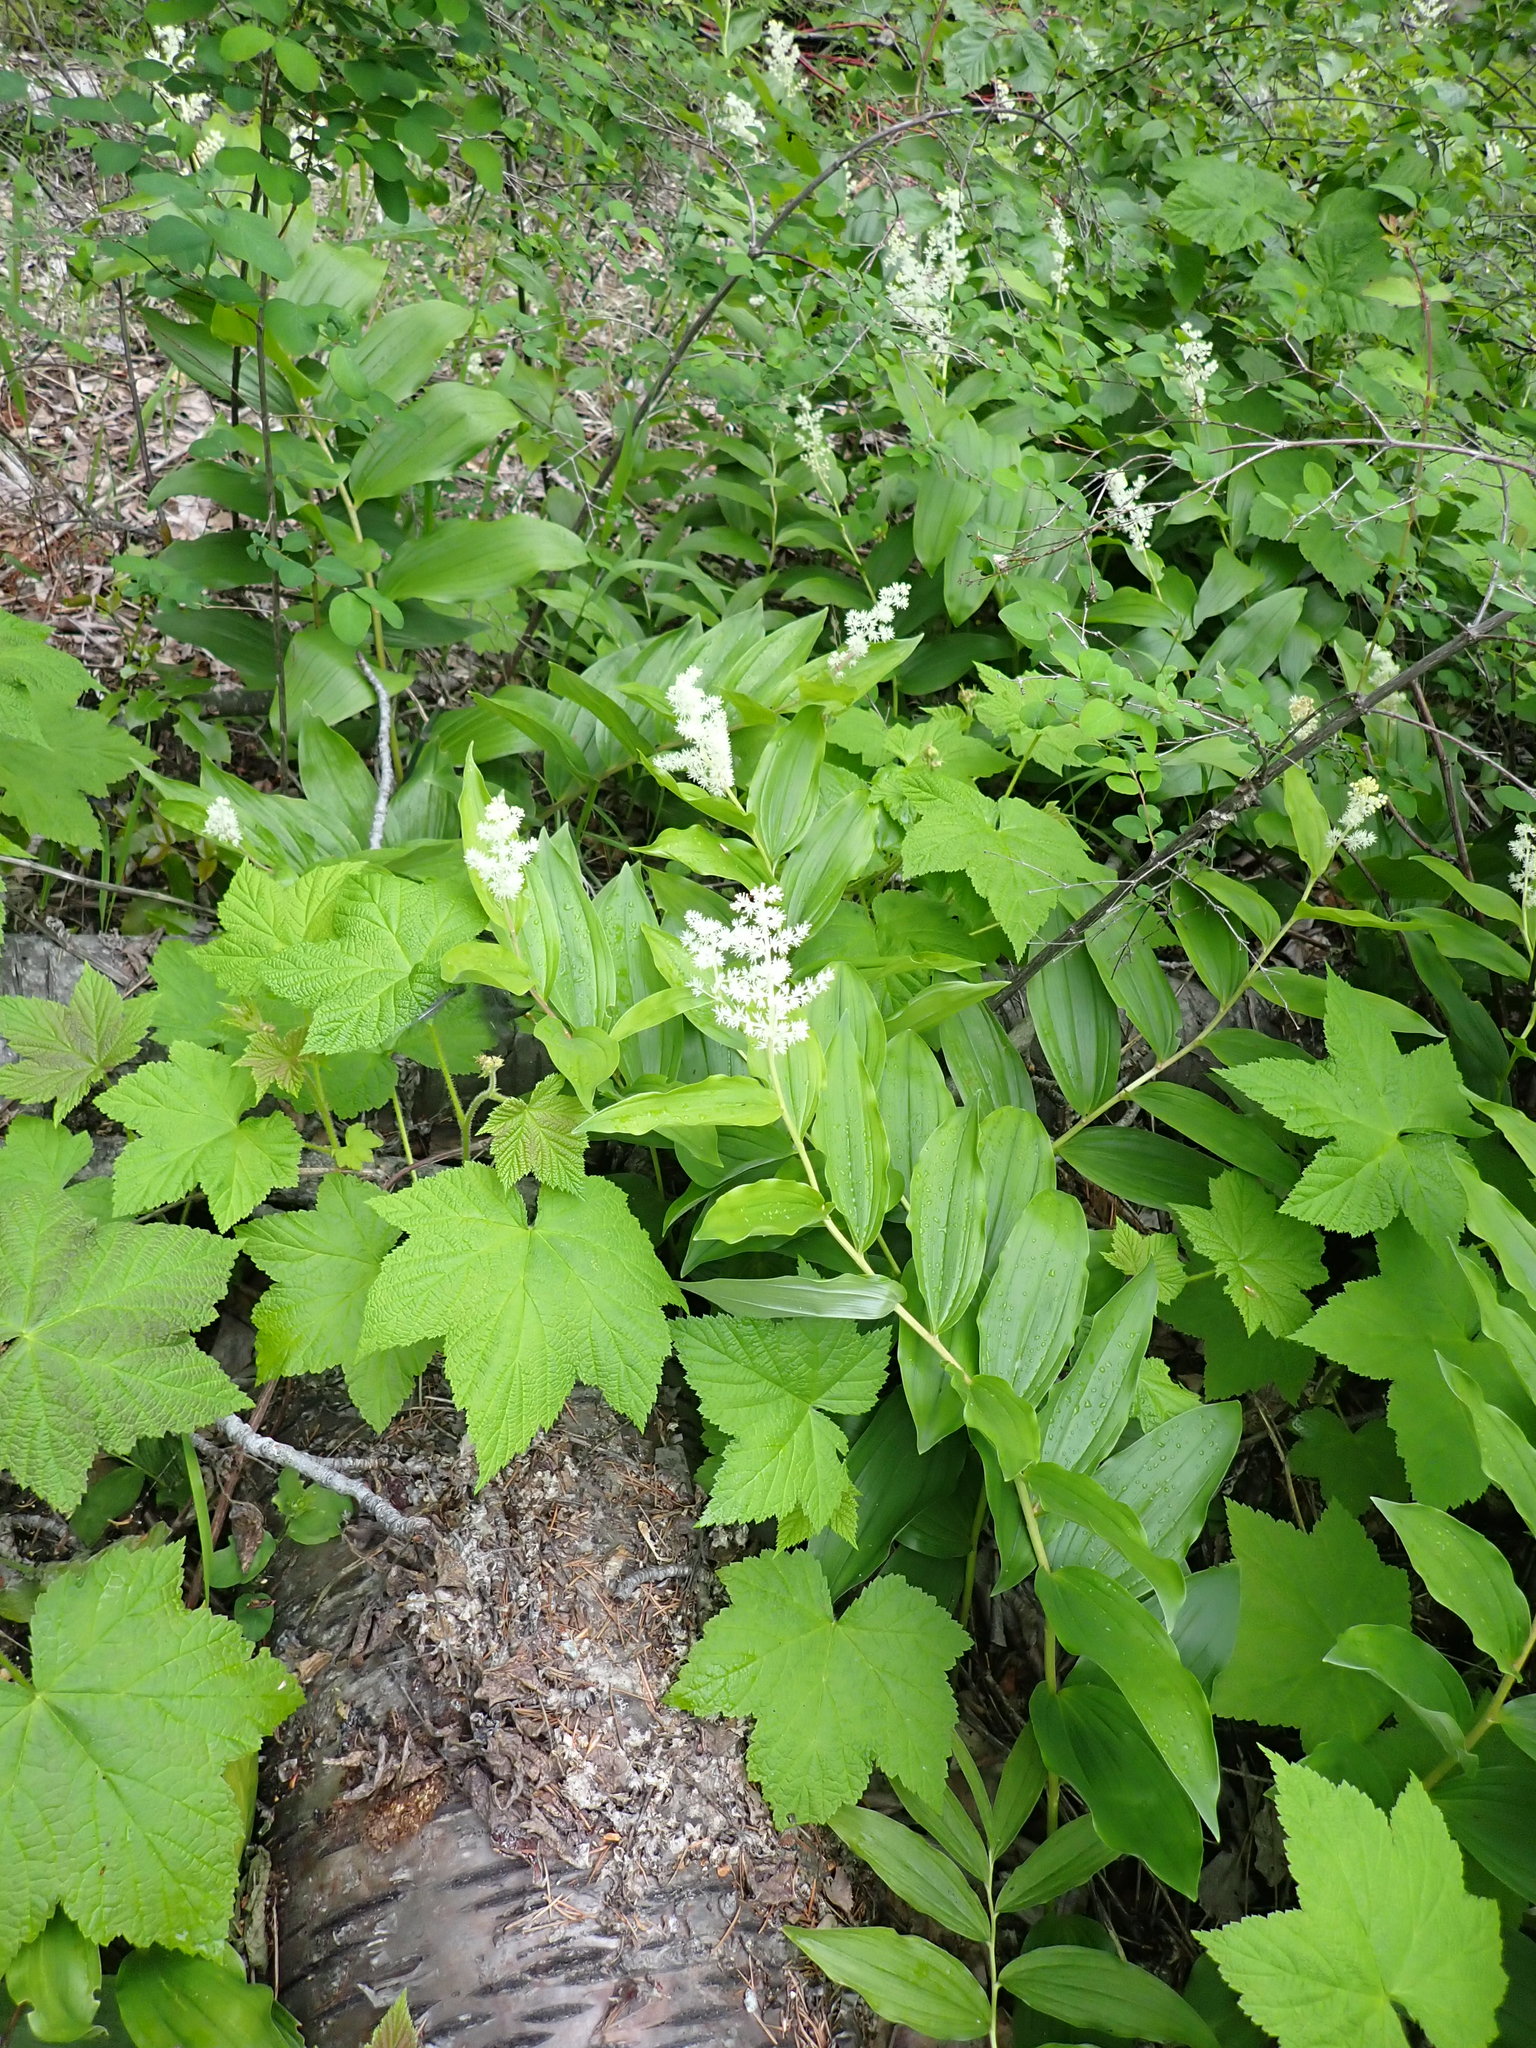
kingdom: Plantae
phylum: Tracheophyta
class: Liliopsida
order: Asparagales
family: Asparagaceae
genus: Maianthemum
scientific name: Maianthemum racemosum
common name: False spikenard
